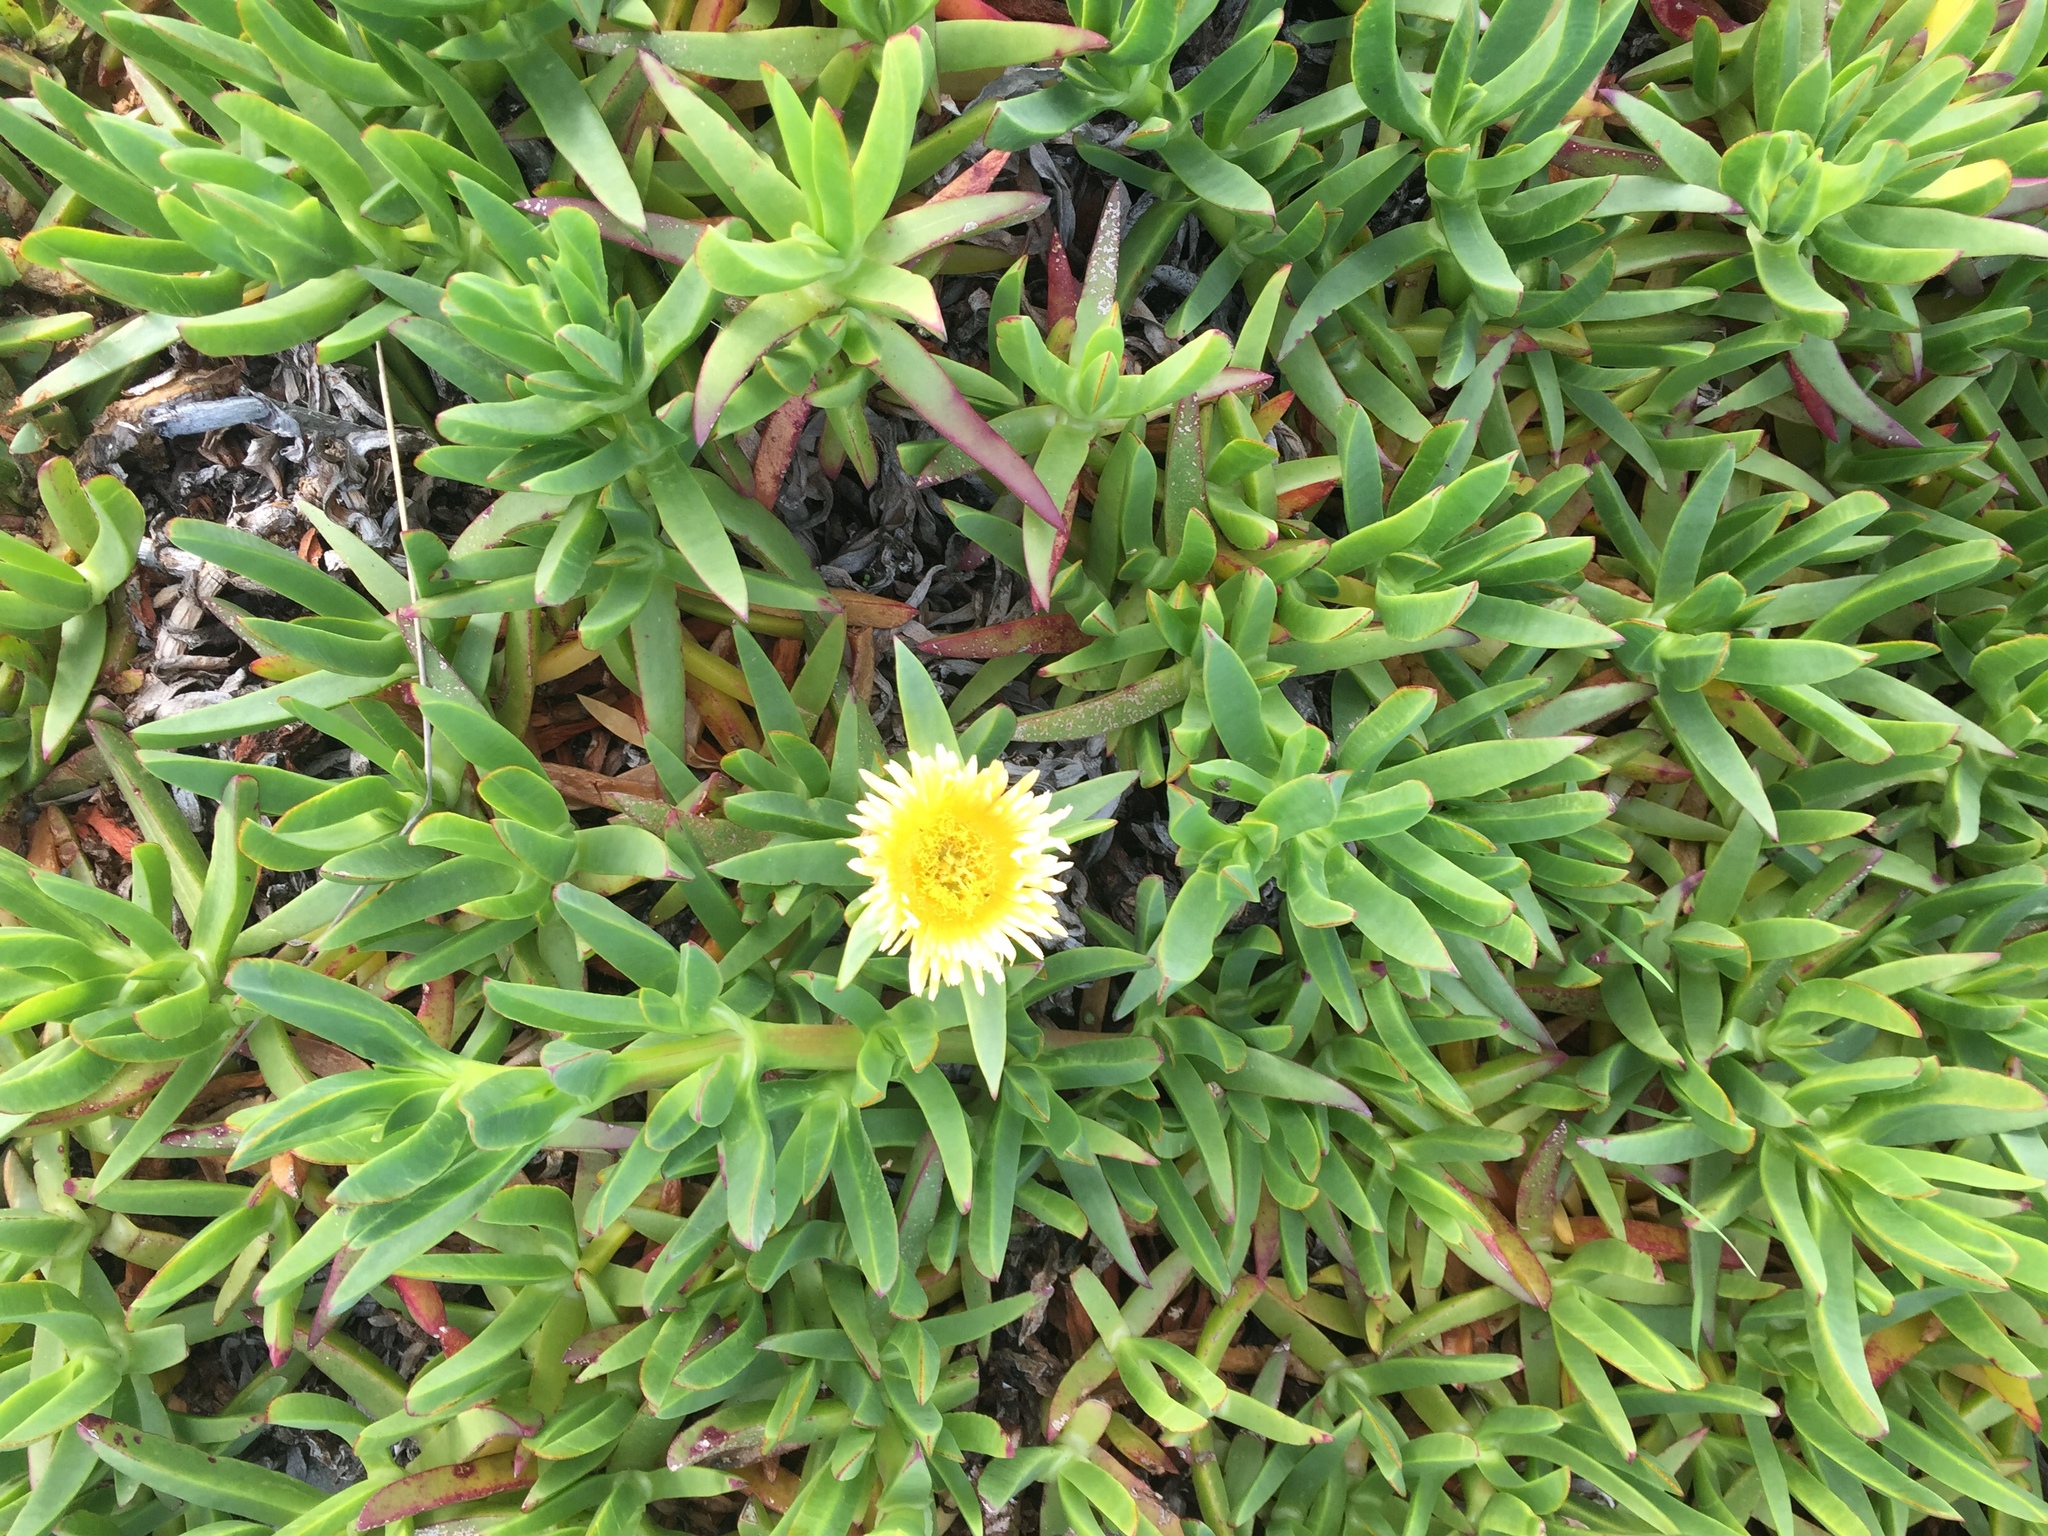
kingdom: Plantae
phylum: Tracheophyta
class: Magnoliopsida
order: Caryophyllales
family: Aizoaceae
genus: Carpobrotus
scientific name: Carpobrotus edulis
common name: Hottentot-fig
